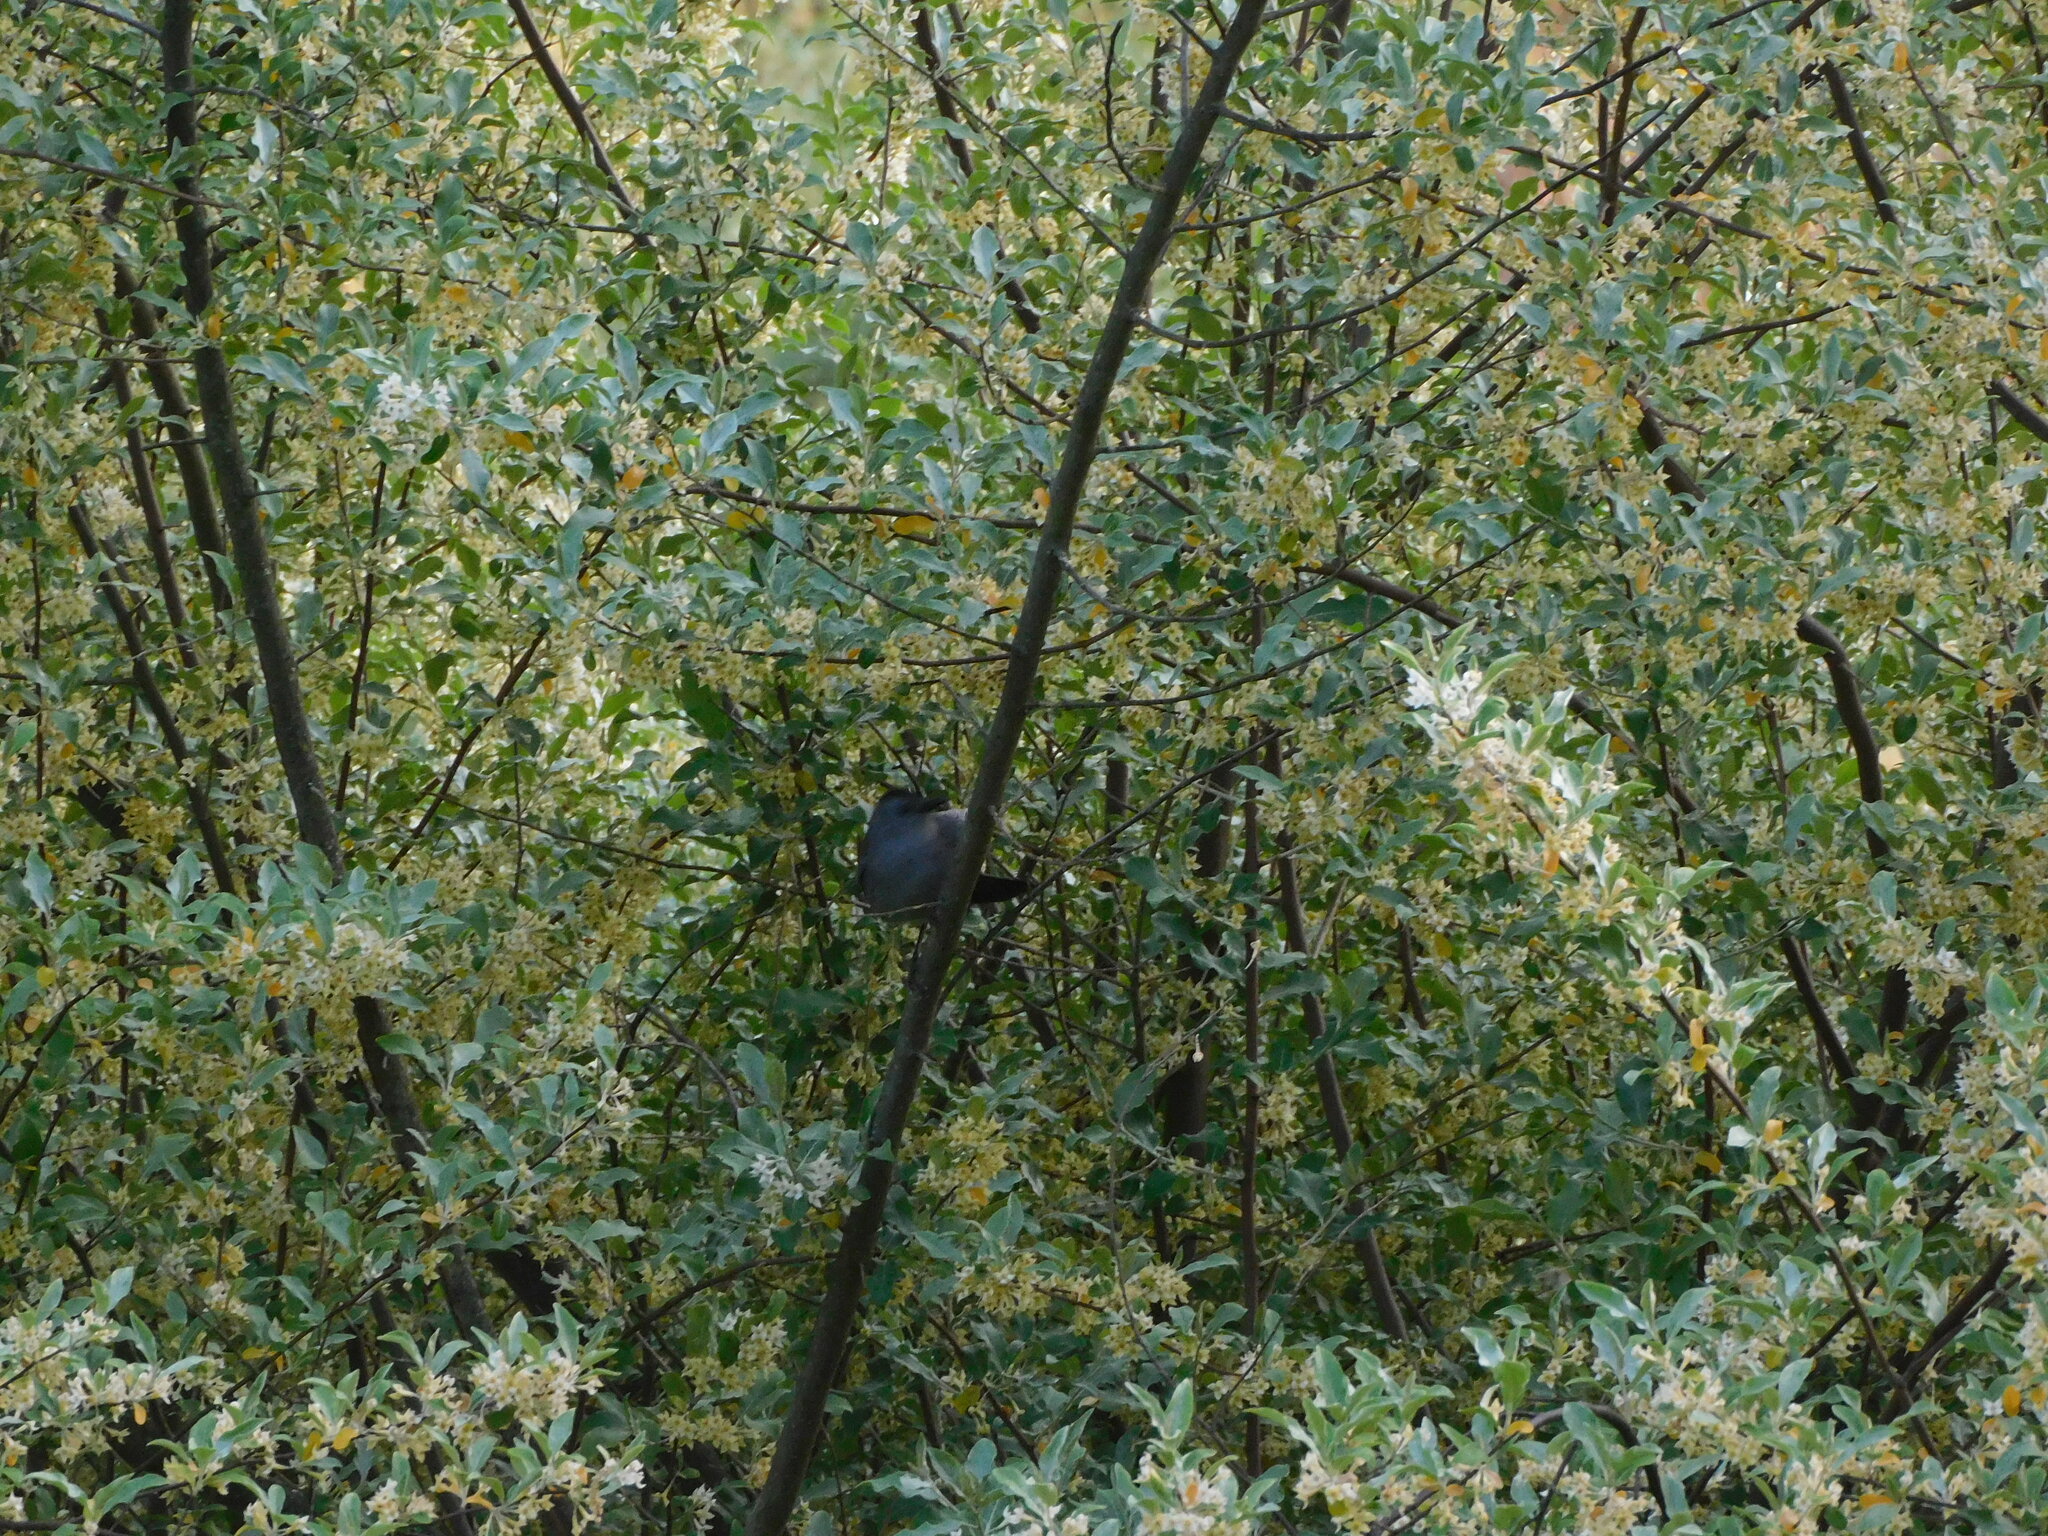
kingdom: Animalia
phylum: Chordata
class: Aves
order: Passeriformes
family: Mimidae
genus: Dumetella
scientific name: Dumetella carolinensis
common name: Gray catbird
